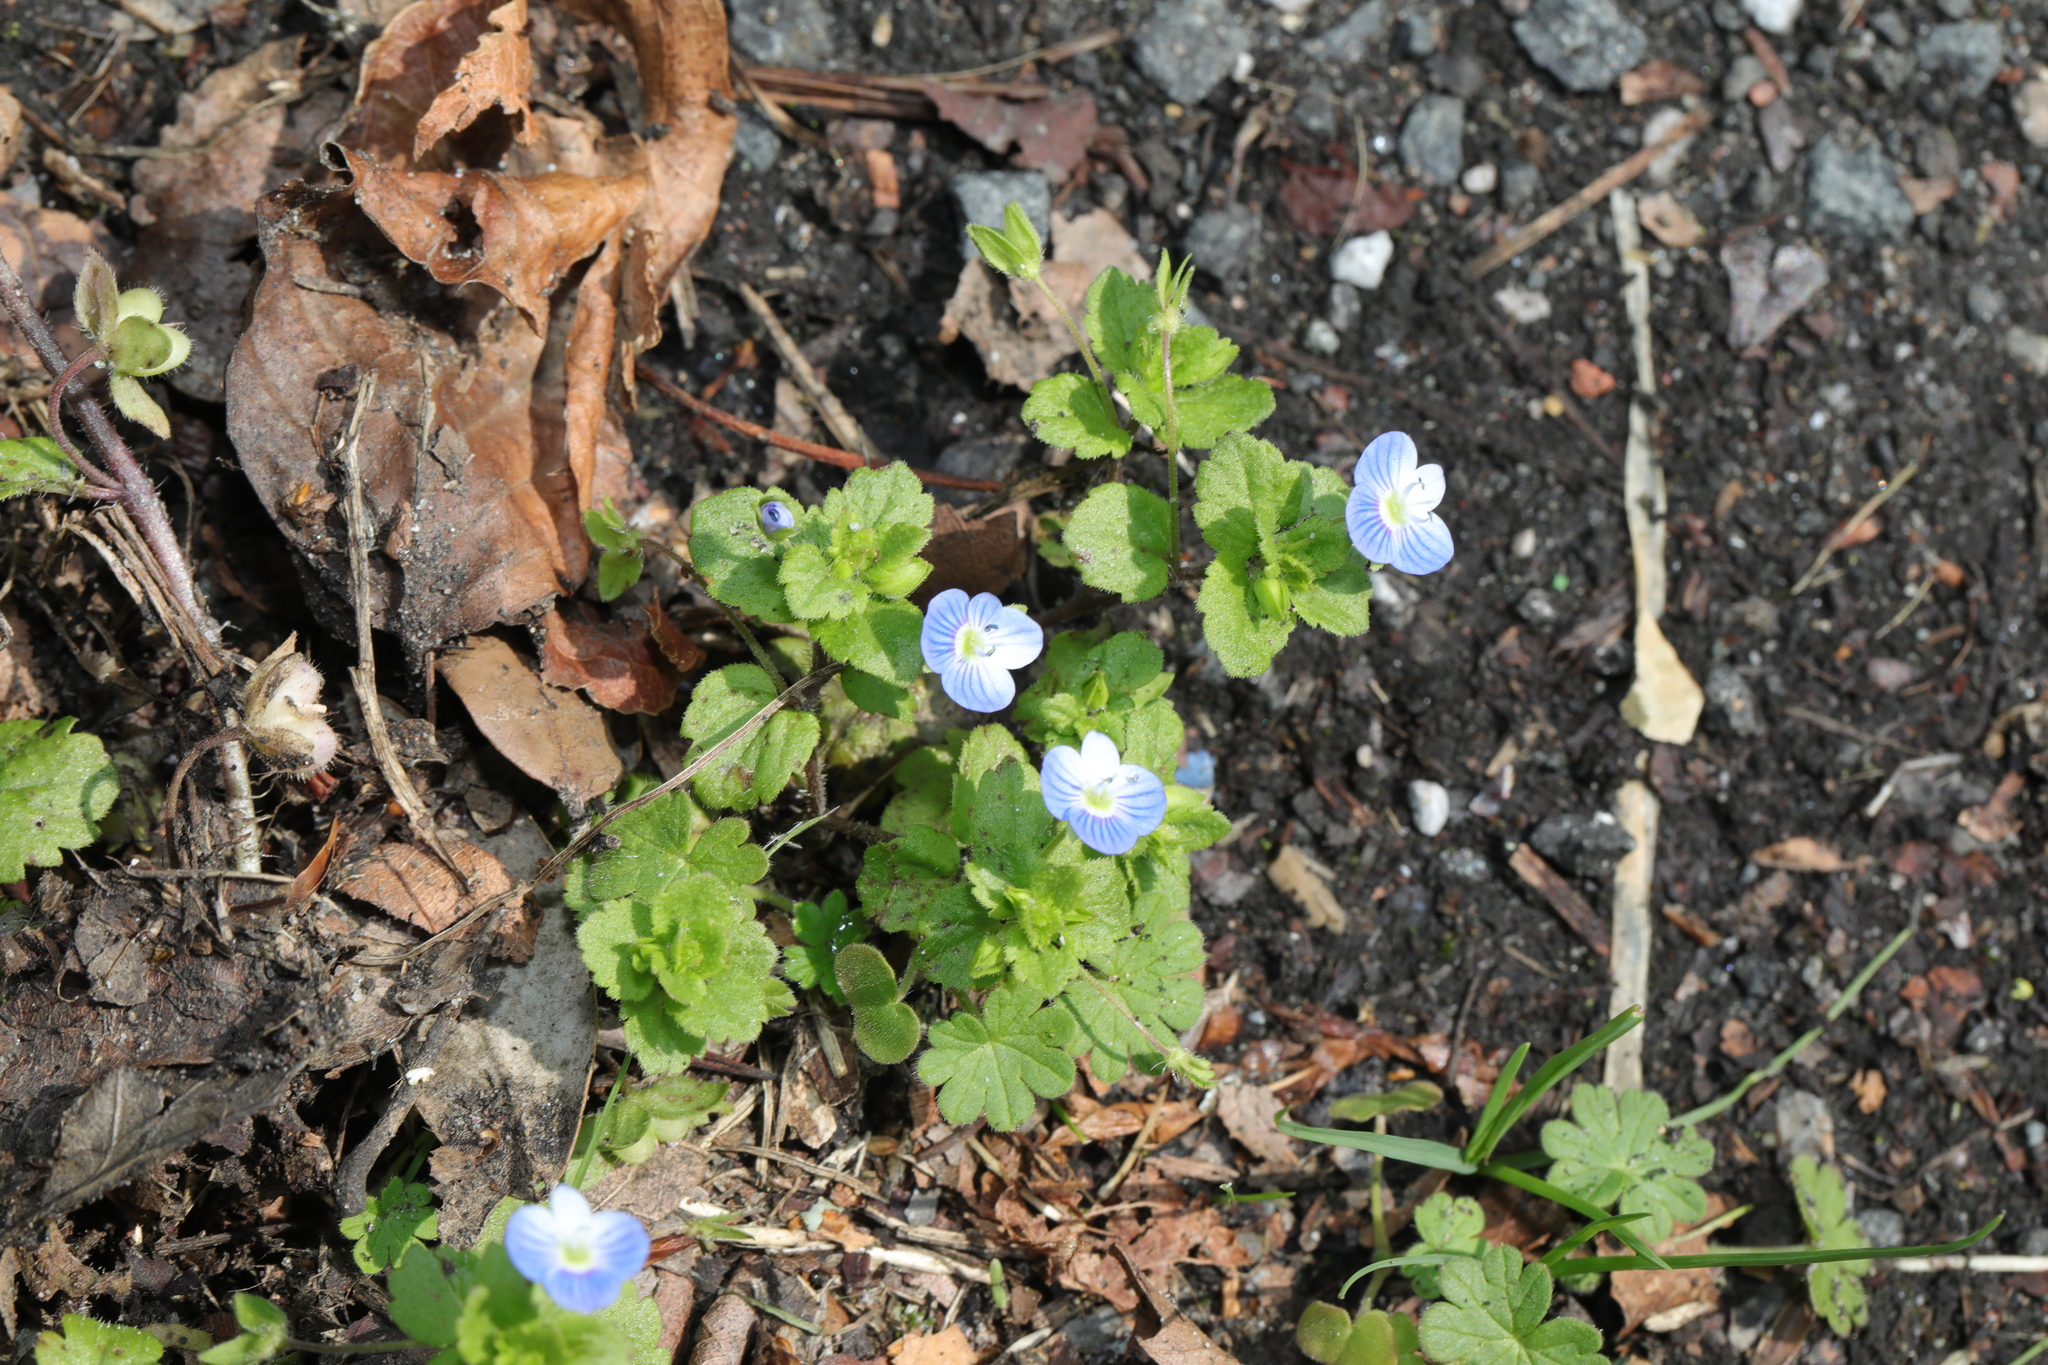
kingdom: Plantae
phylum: Tracheophyta
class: Magnoliopsida
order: Lamiales
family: Plantaginaceae
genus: Veronica
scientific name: Veronica persica
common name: Common field-speedwell
